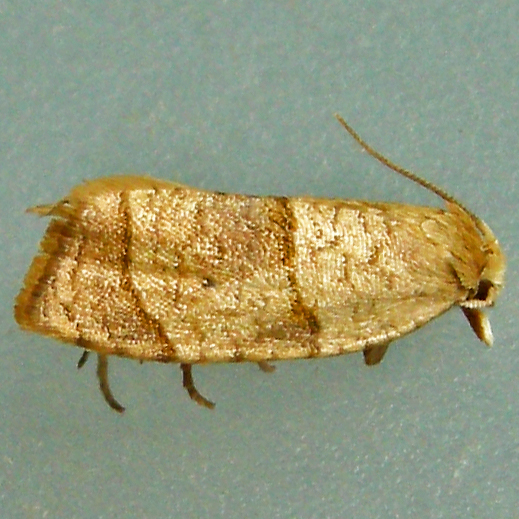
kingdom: Animalia
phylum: Arthropoda
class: Insecta
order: Lepidoptera
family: Tortricidae
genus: Coelostathma
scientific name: Coelostathma discopunctana
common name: Batman moth
